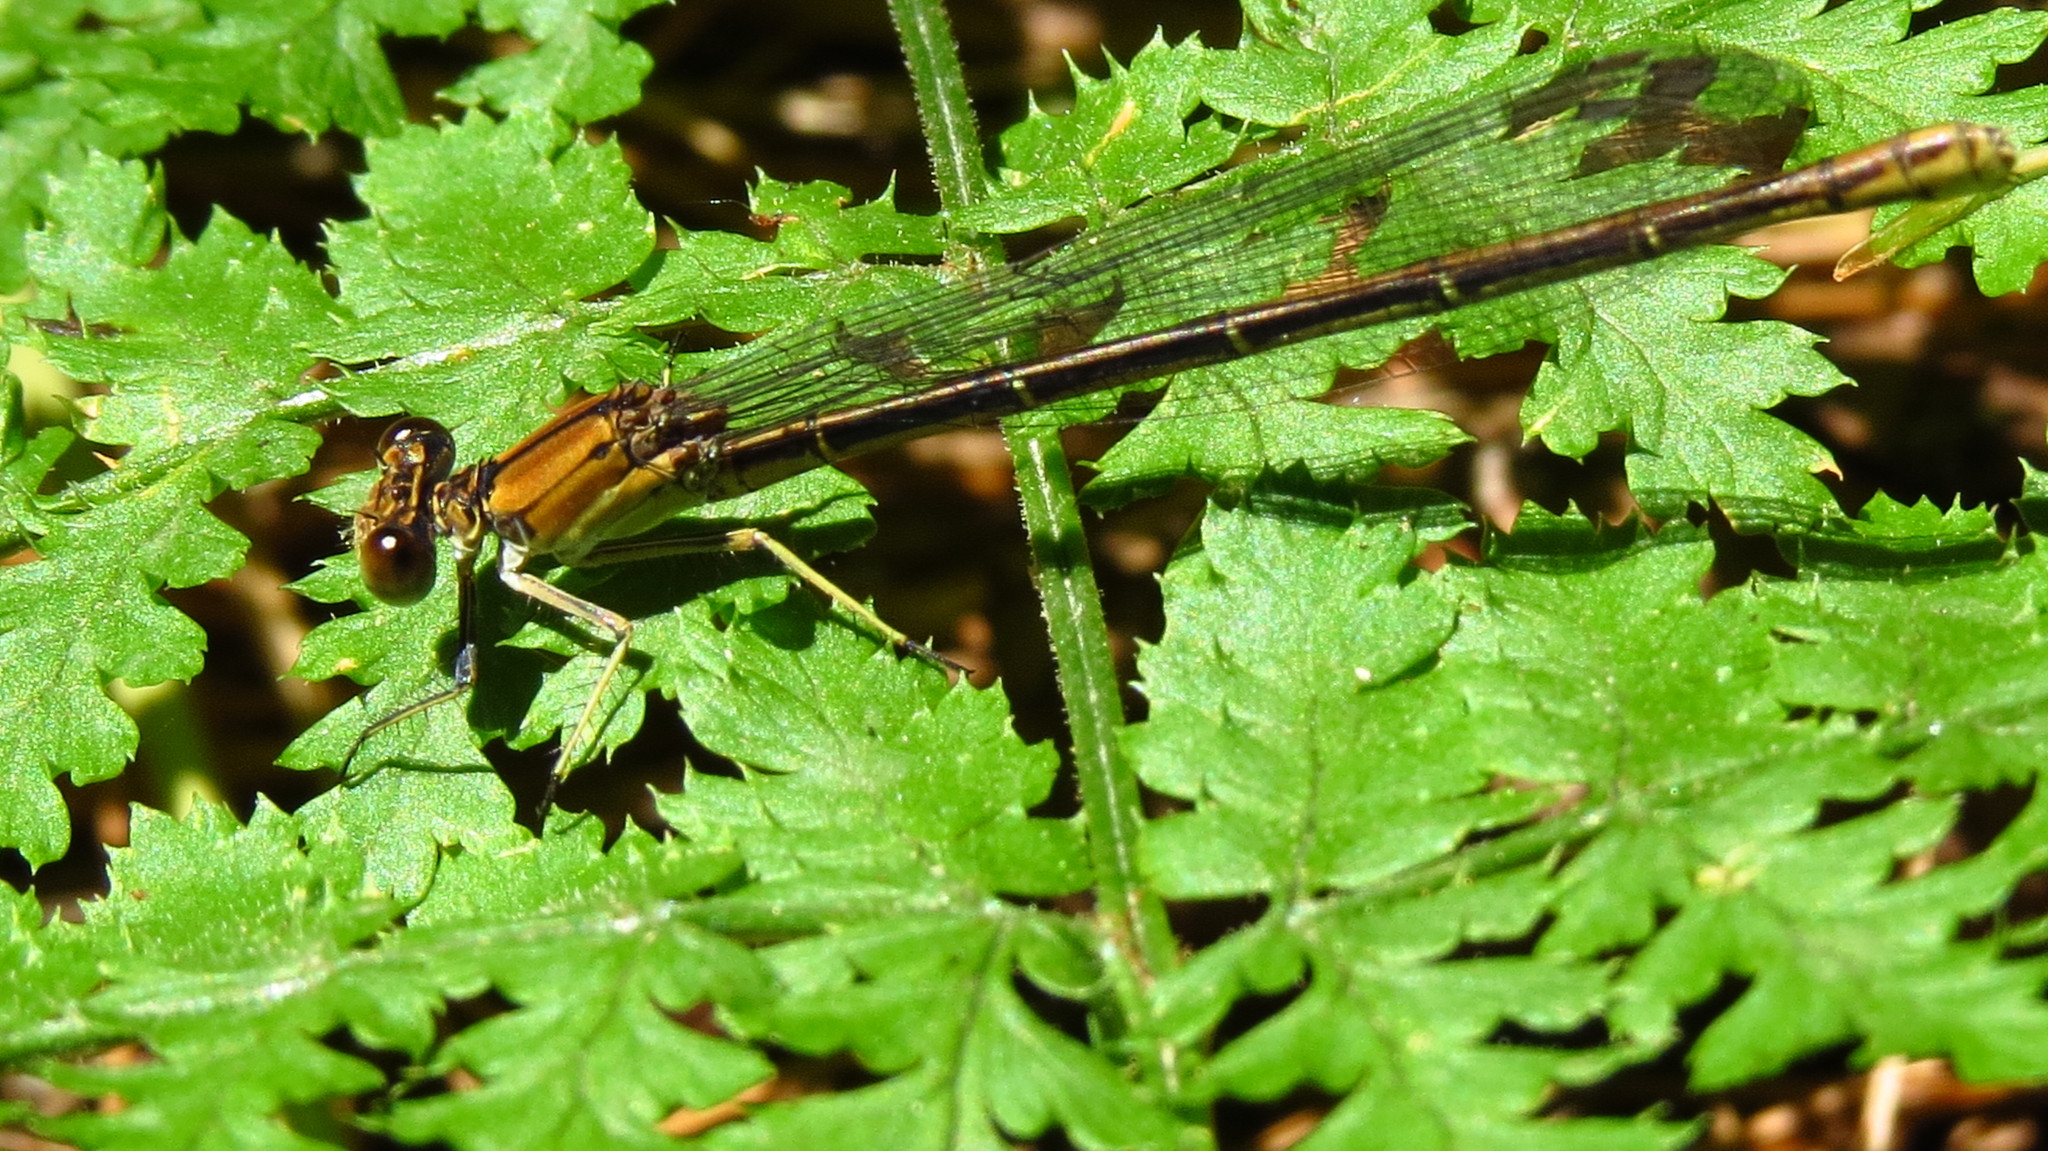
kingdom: Animalia
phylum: Arthropoda
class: Insecta
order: Odonata
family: Coenagrionidae
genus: Argia
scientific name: Argia moesta
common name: Powdered dancer
